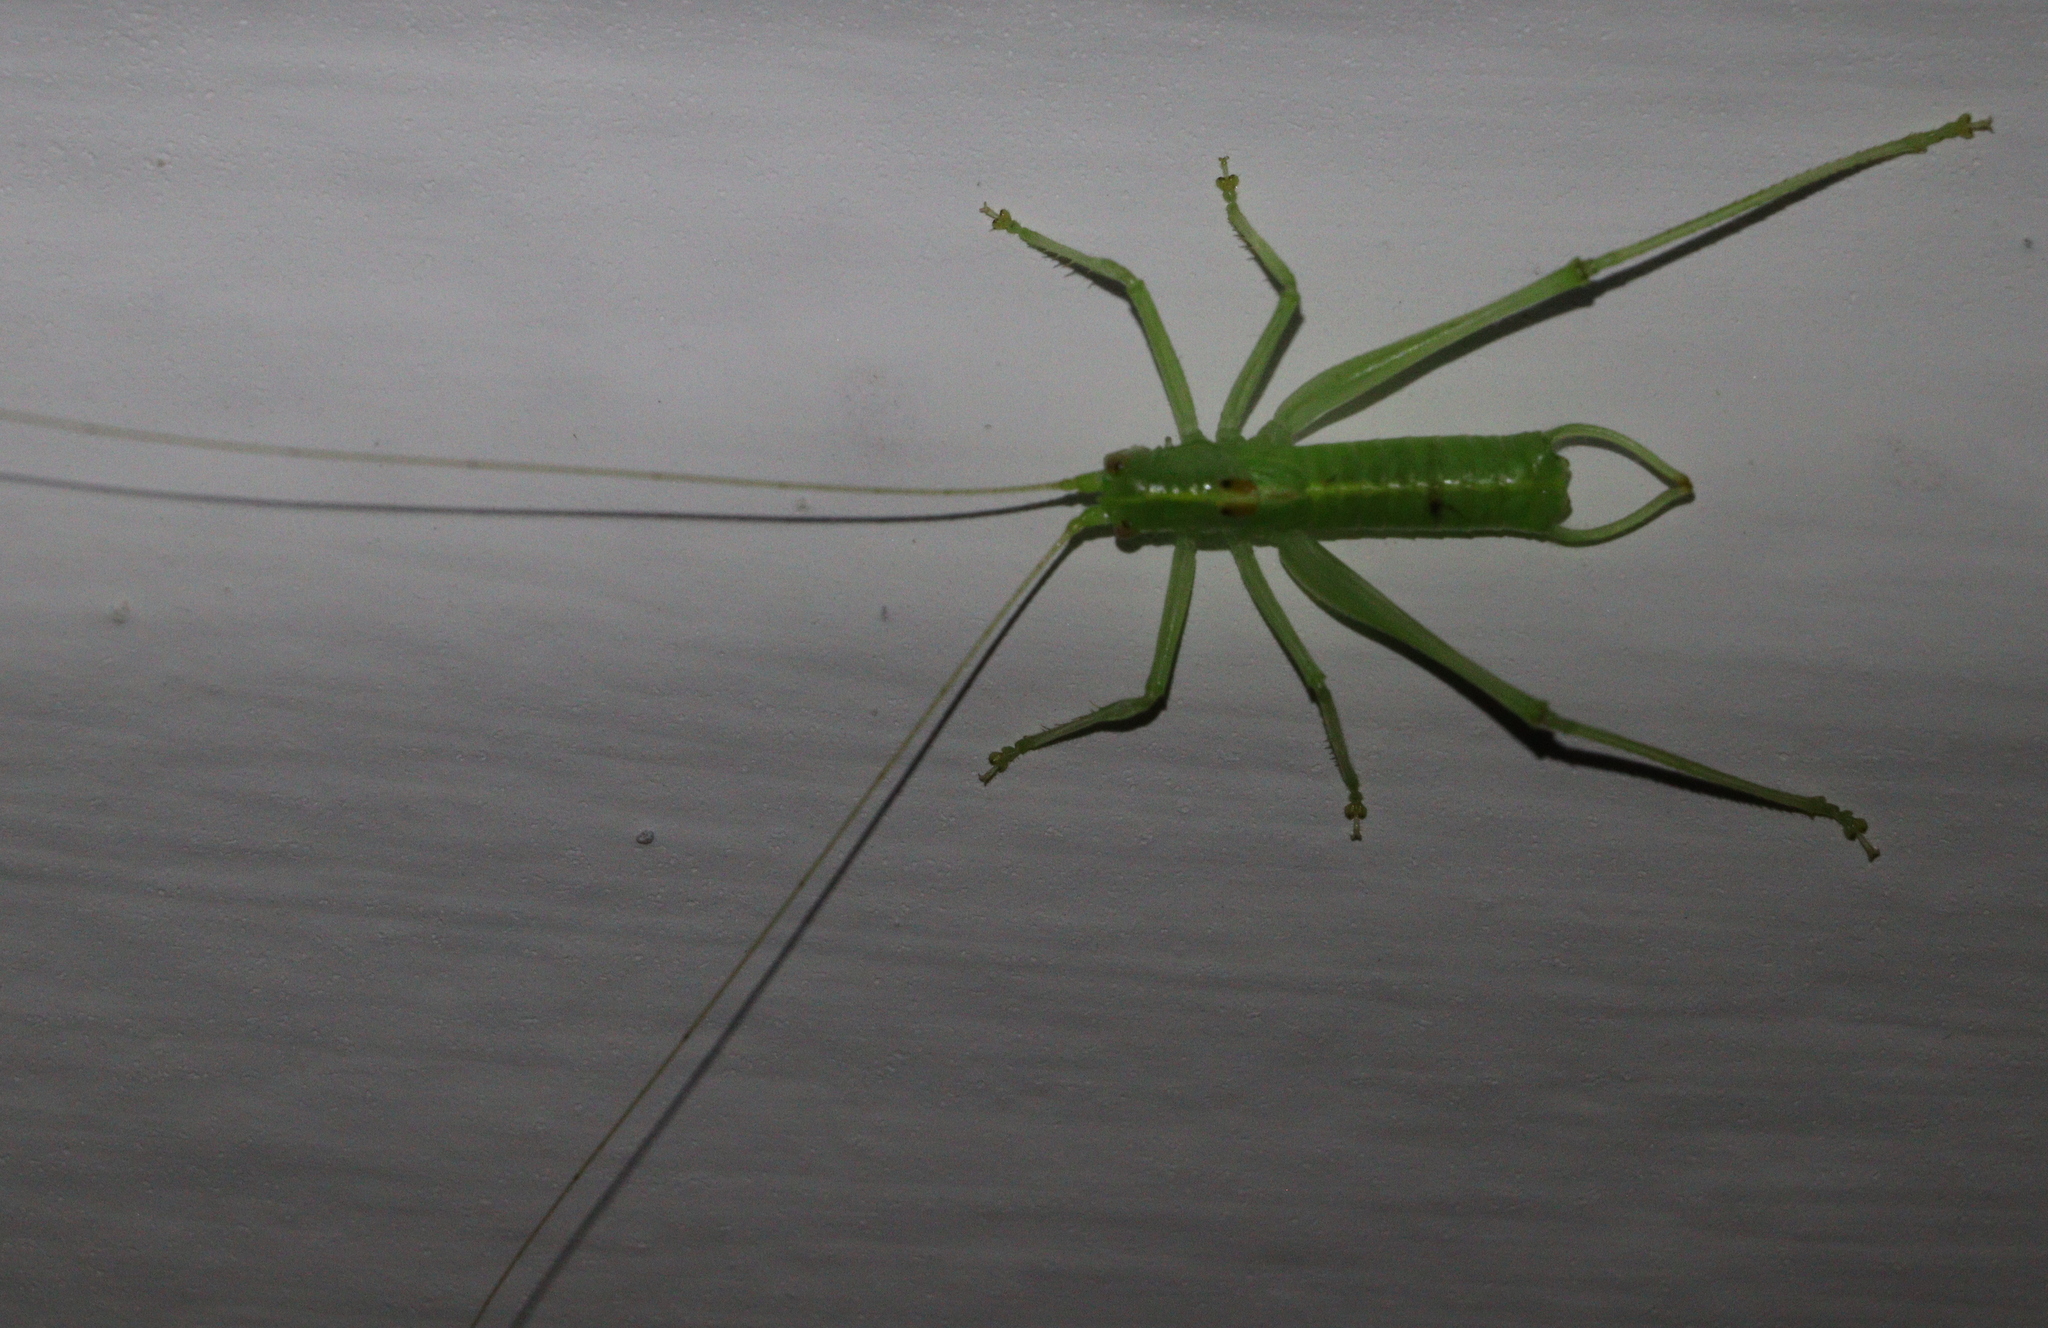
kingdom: Animalia
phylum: Arthropoda
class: Insecta
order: Orthoptera
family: Tettigoniidae
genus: Meconema
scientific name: Meconema meridionale
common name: Southern oak bush-cricket
